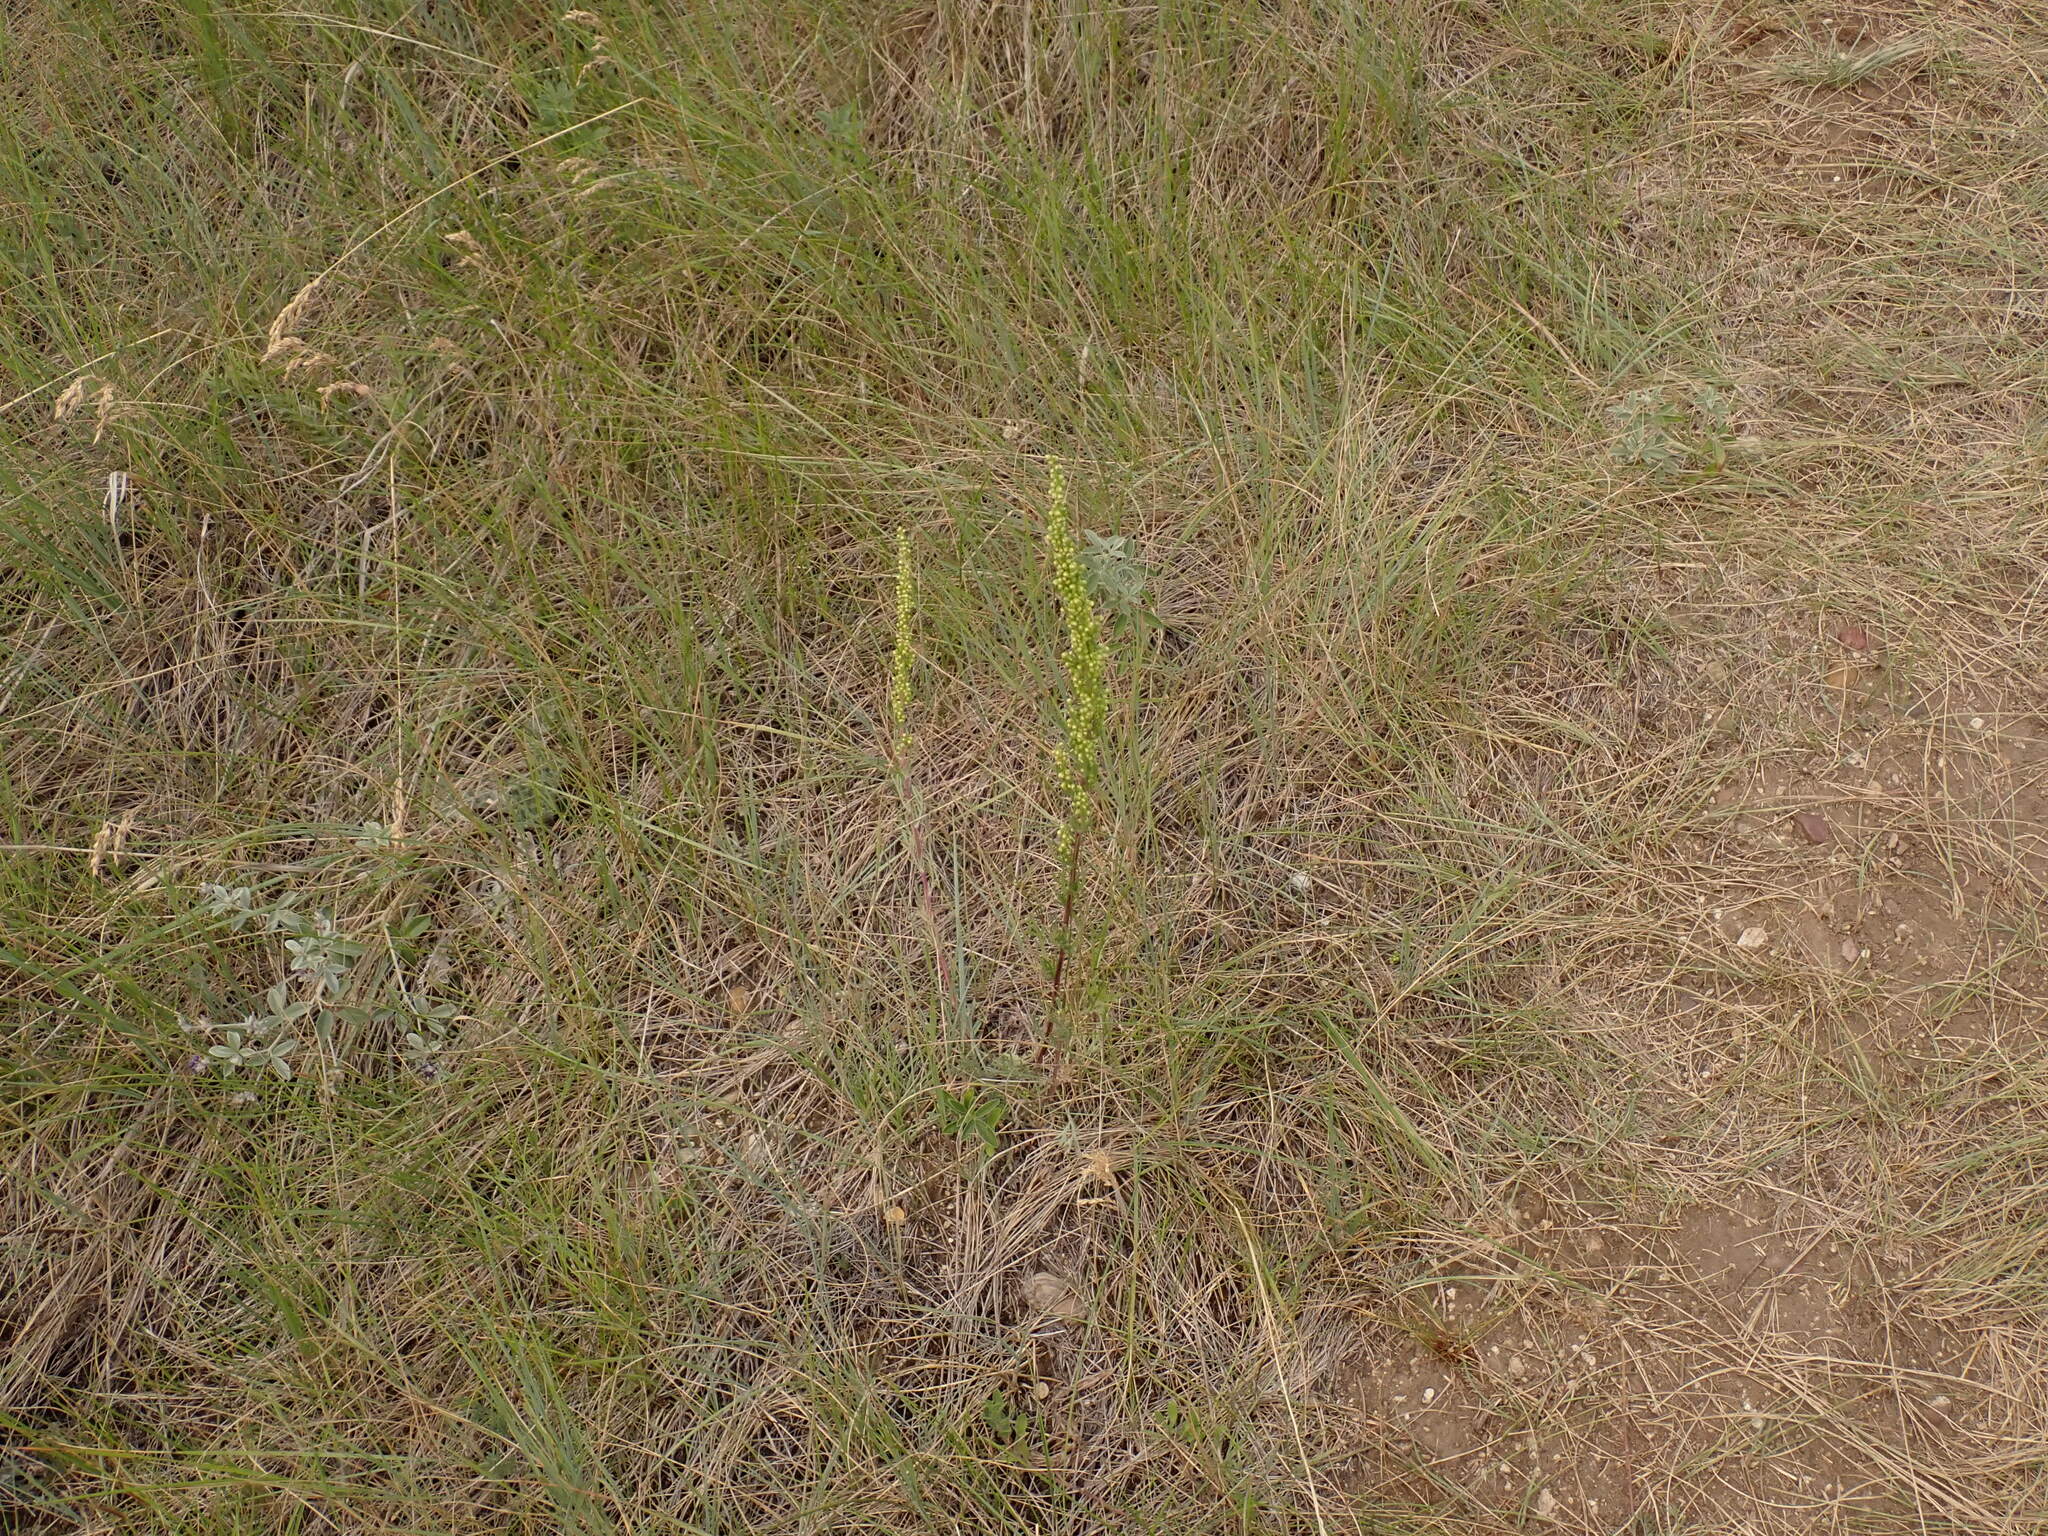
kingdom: Plantae
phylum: Tracheophyta
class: Magnoliopsida
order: Asterales
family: Asteraceae
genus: Artemisia
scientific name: Artemisia campestris
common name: Field wormwood
